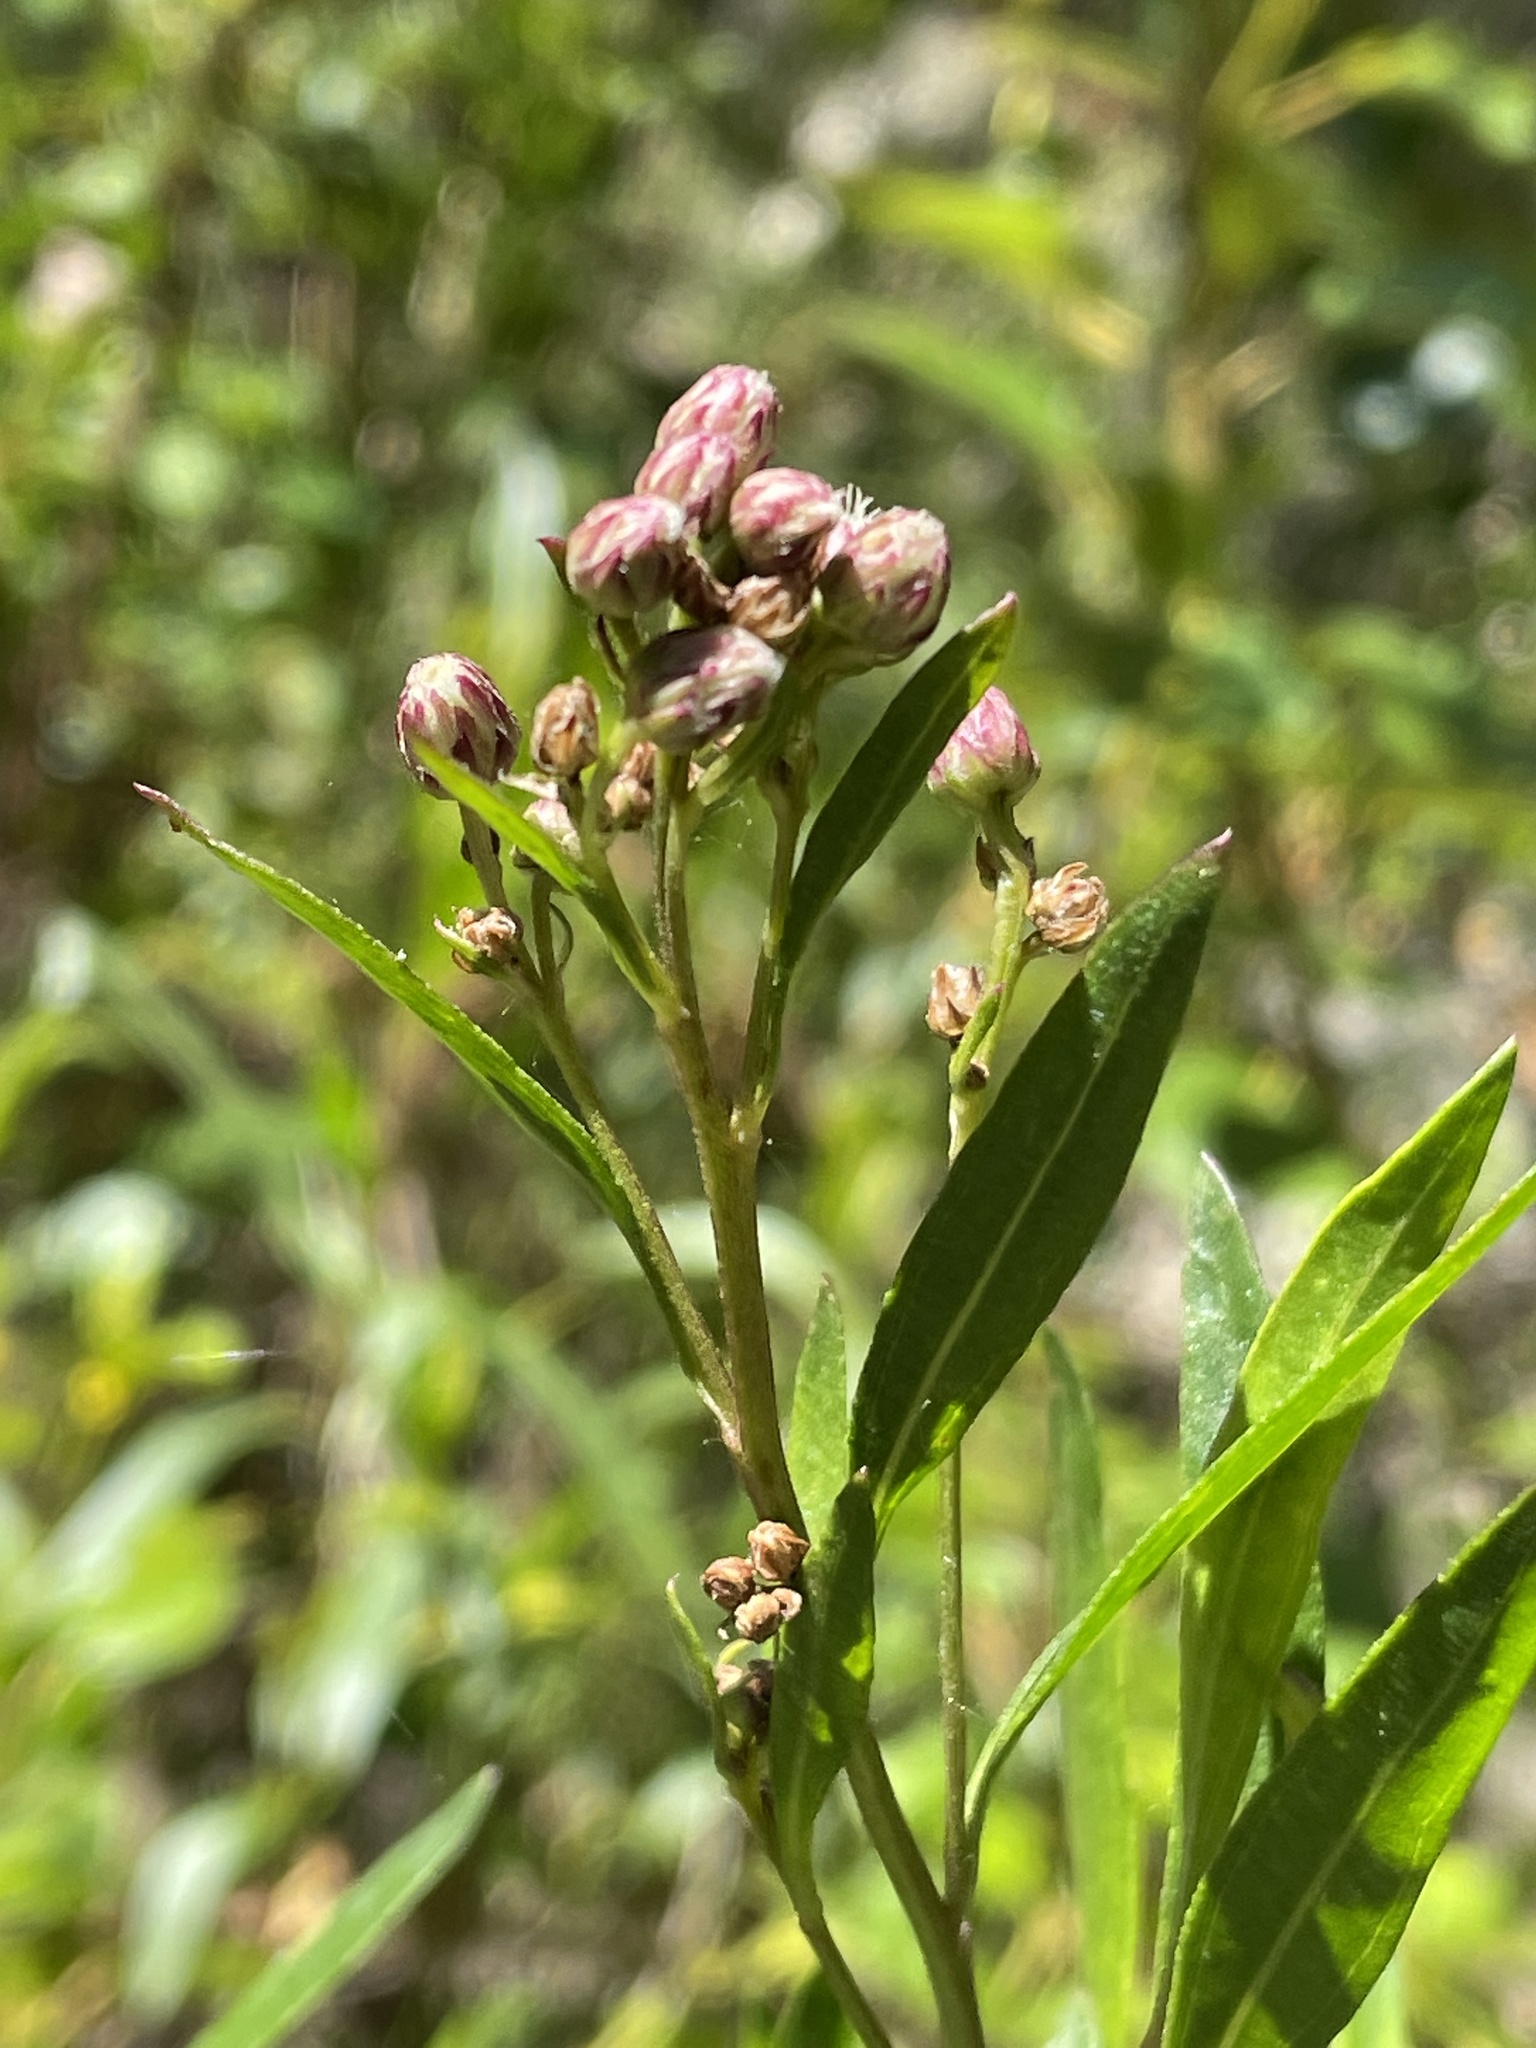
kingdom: Plantae
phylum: Tracheophyta
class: Magnoliopsida
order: Asterales
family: Asteraceae
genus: Baccharis
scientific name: Baccharis salicifolia
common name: Sticky baccharis
